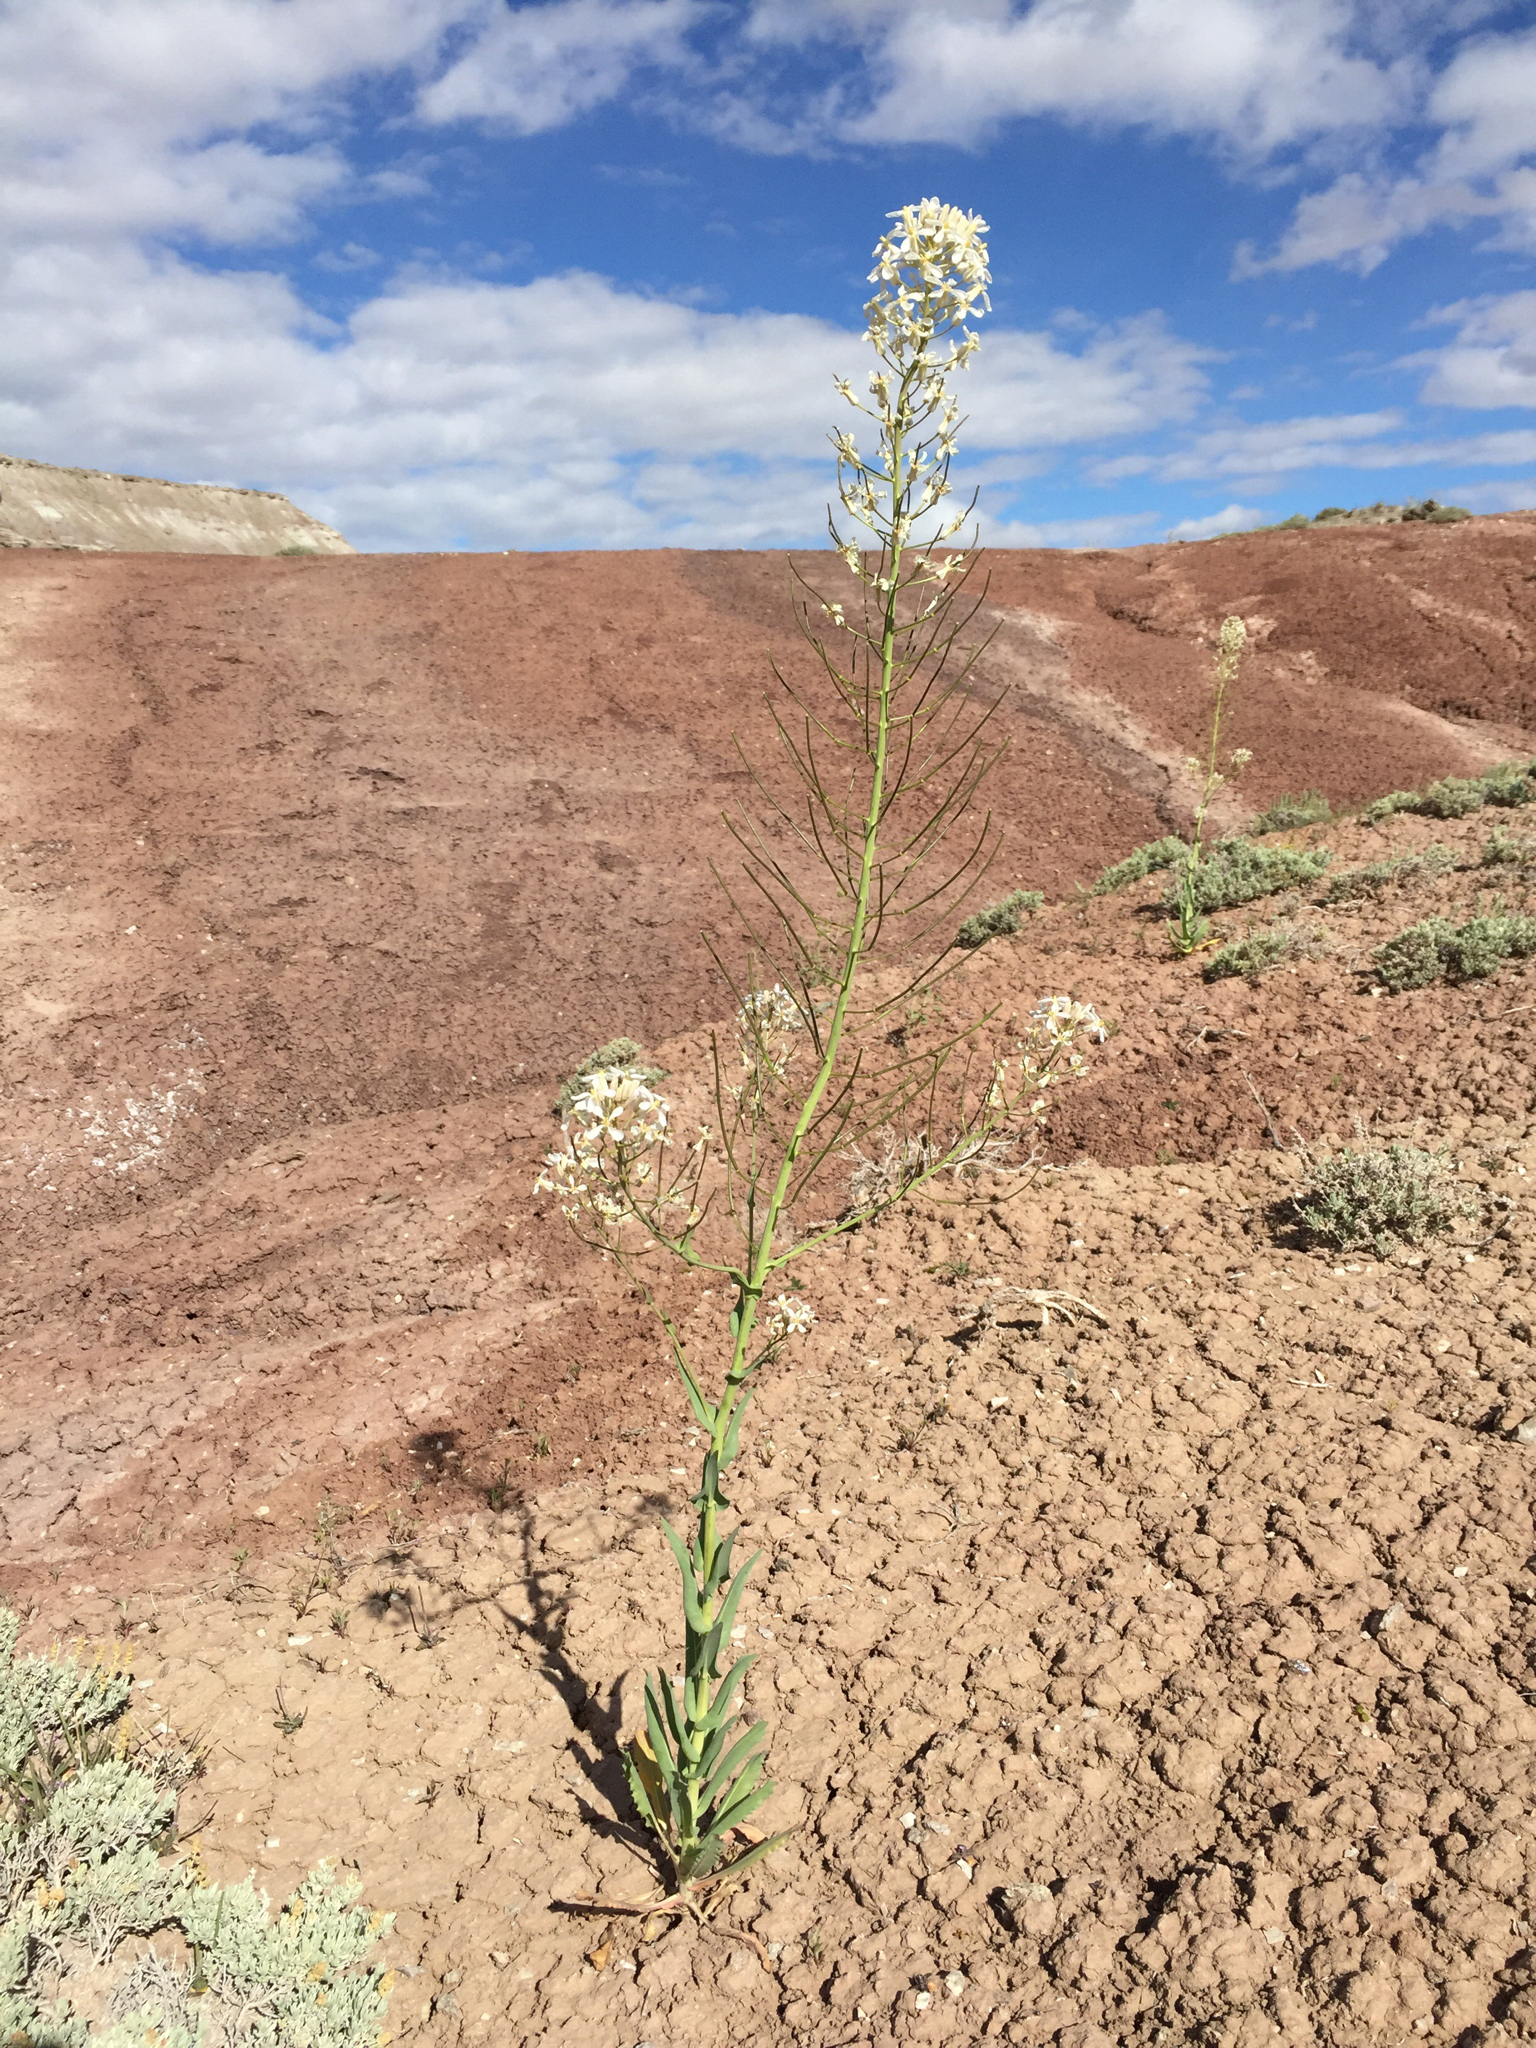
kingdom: Plantae
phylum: Tracheophyta
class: Magnoliopsida
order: Brassicales
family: Brassicaceae
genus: Thelypodiopsis
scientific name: Thelypodiopsis divaricata
